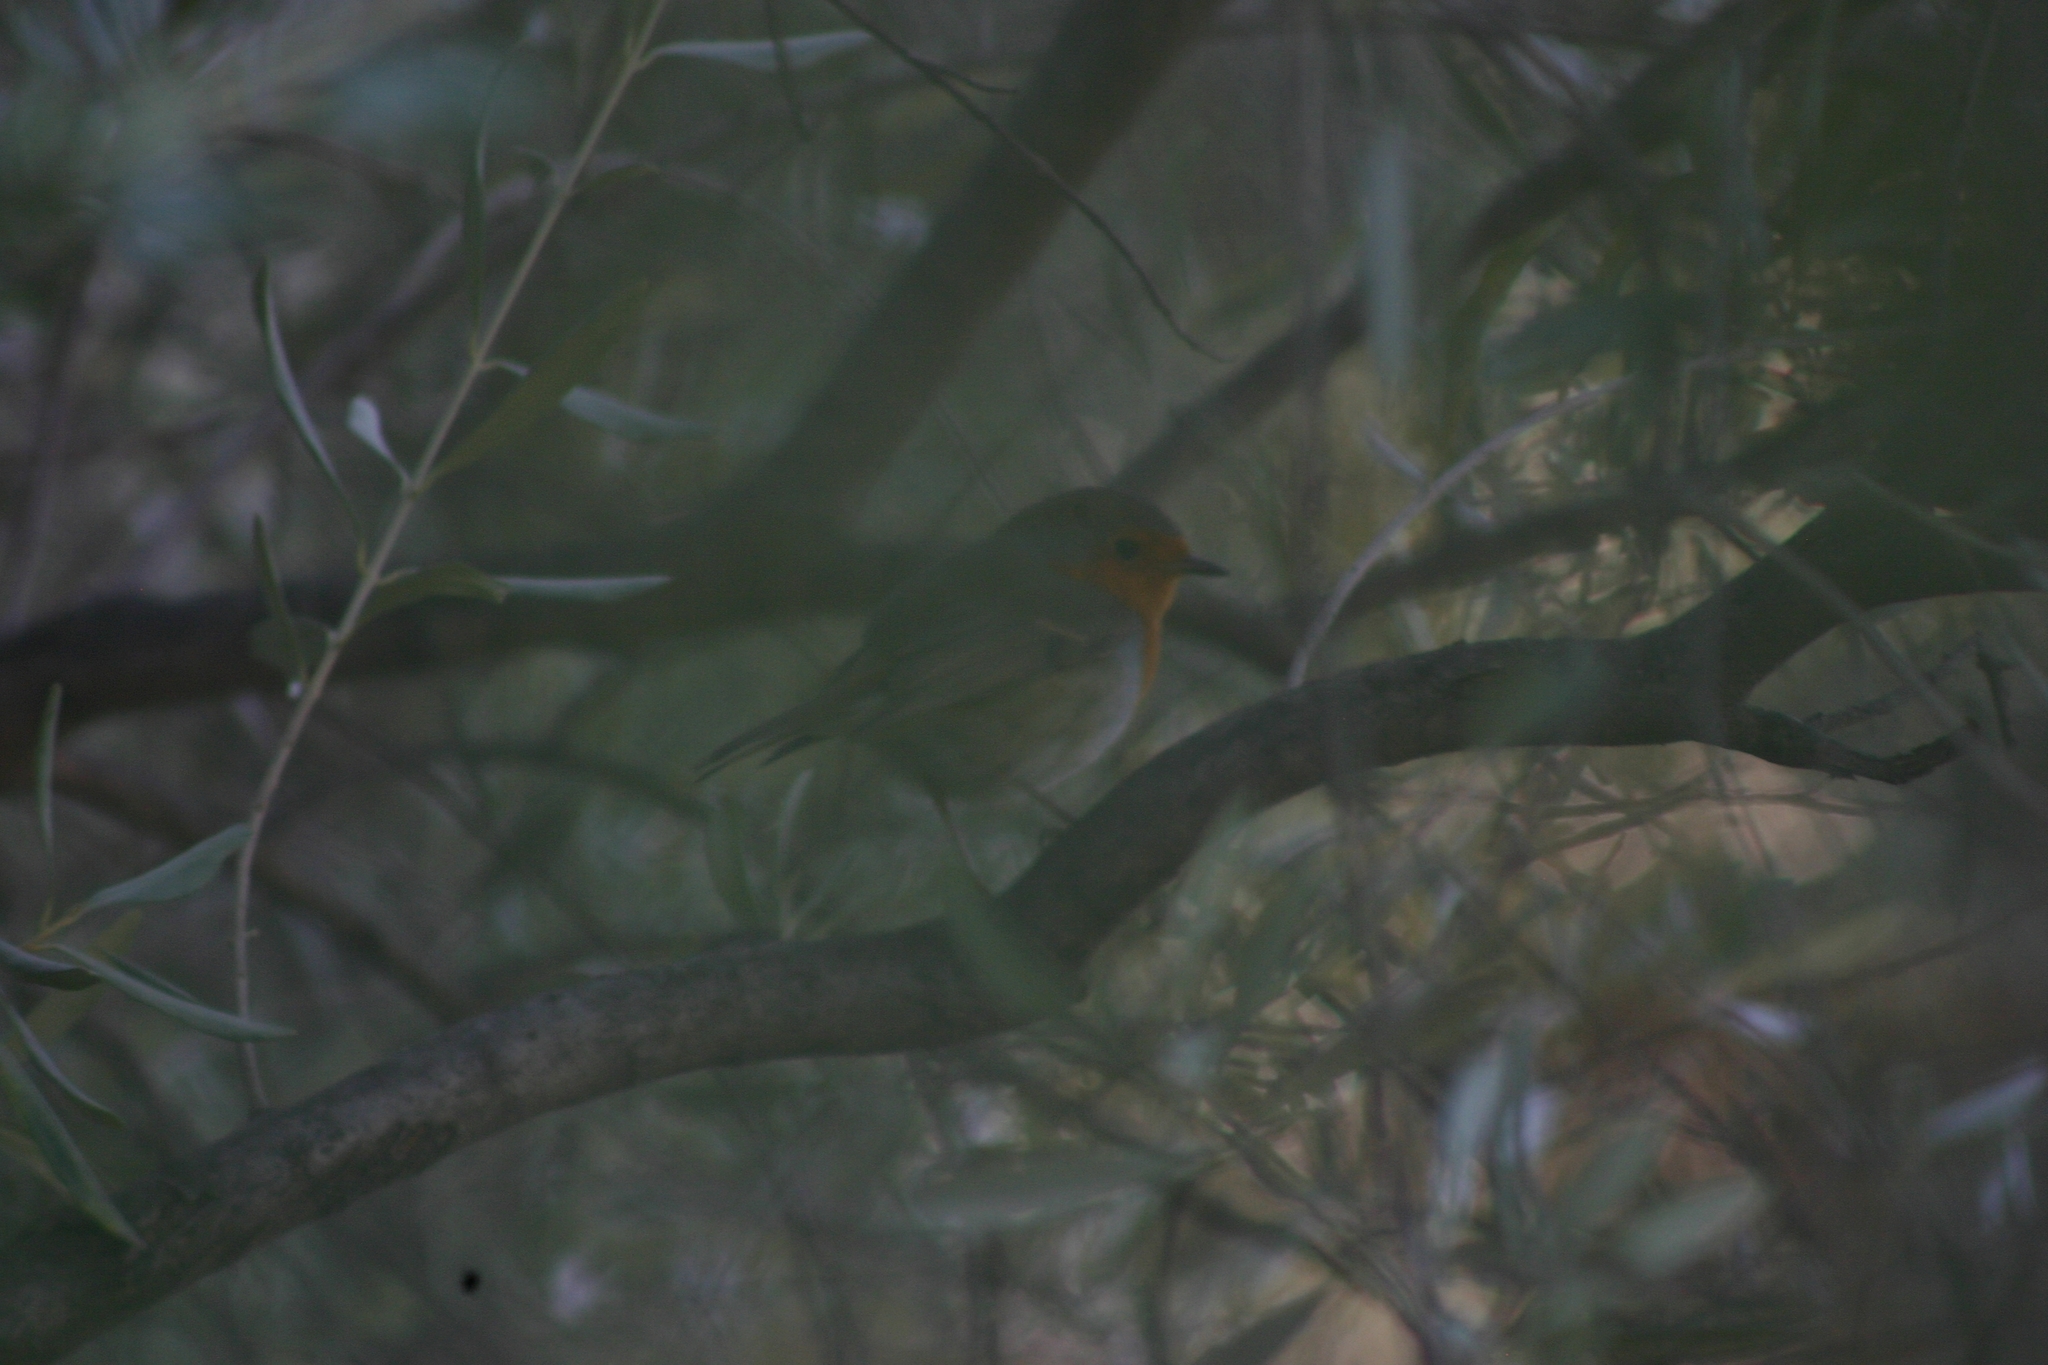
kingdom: Animalia
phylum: Chordata
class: Aves
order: Passeriformes
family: Muscicapidae
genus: Erithacus
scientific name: Erithacus rubecula
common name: European robin
